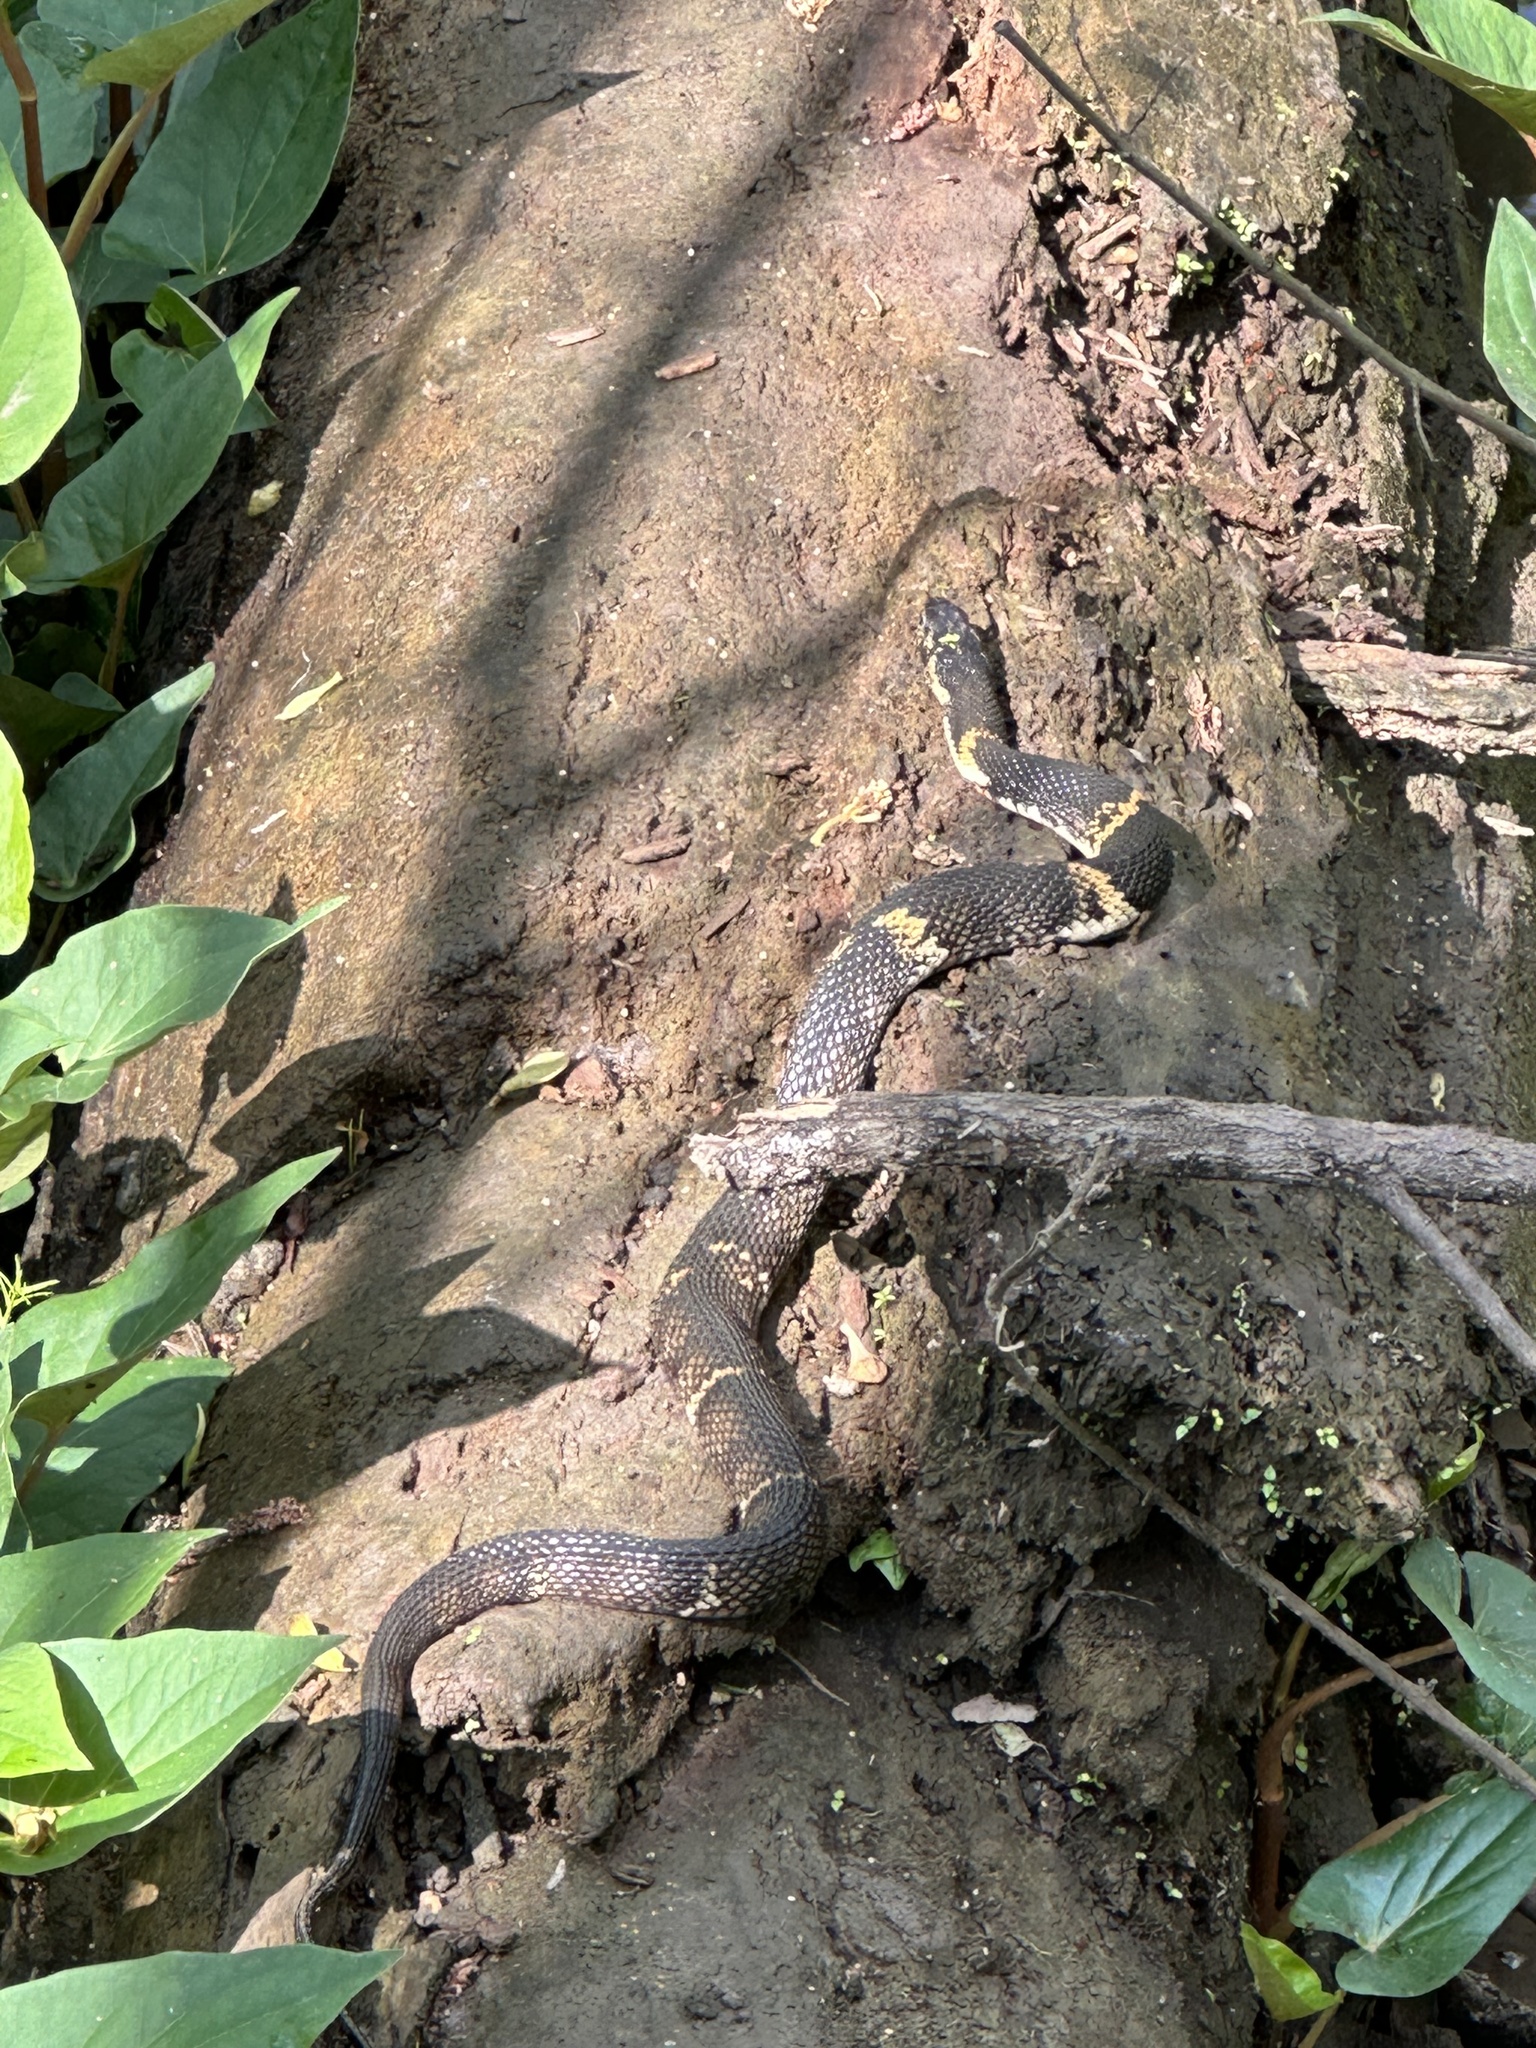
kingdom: Animalia
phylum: Chordata
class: Squamata
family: Colubridae
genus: Nerodia
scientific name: Nerodia fasciata
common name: Southern water snake
